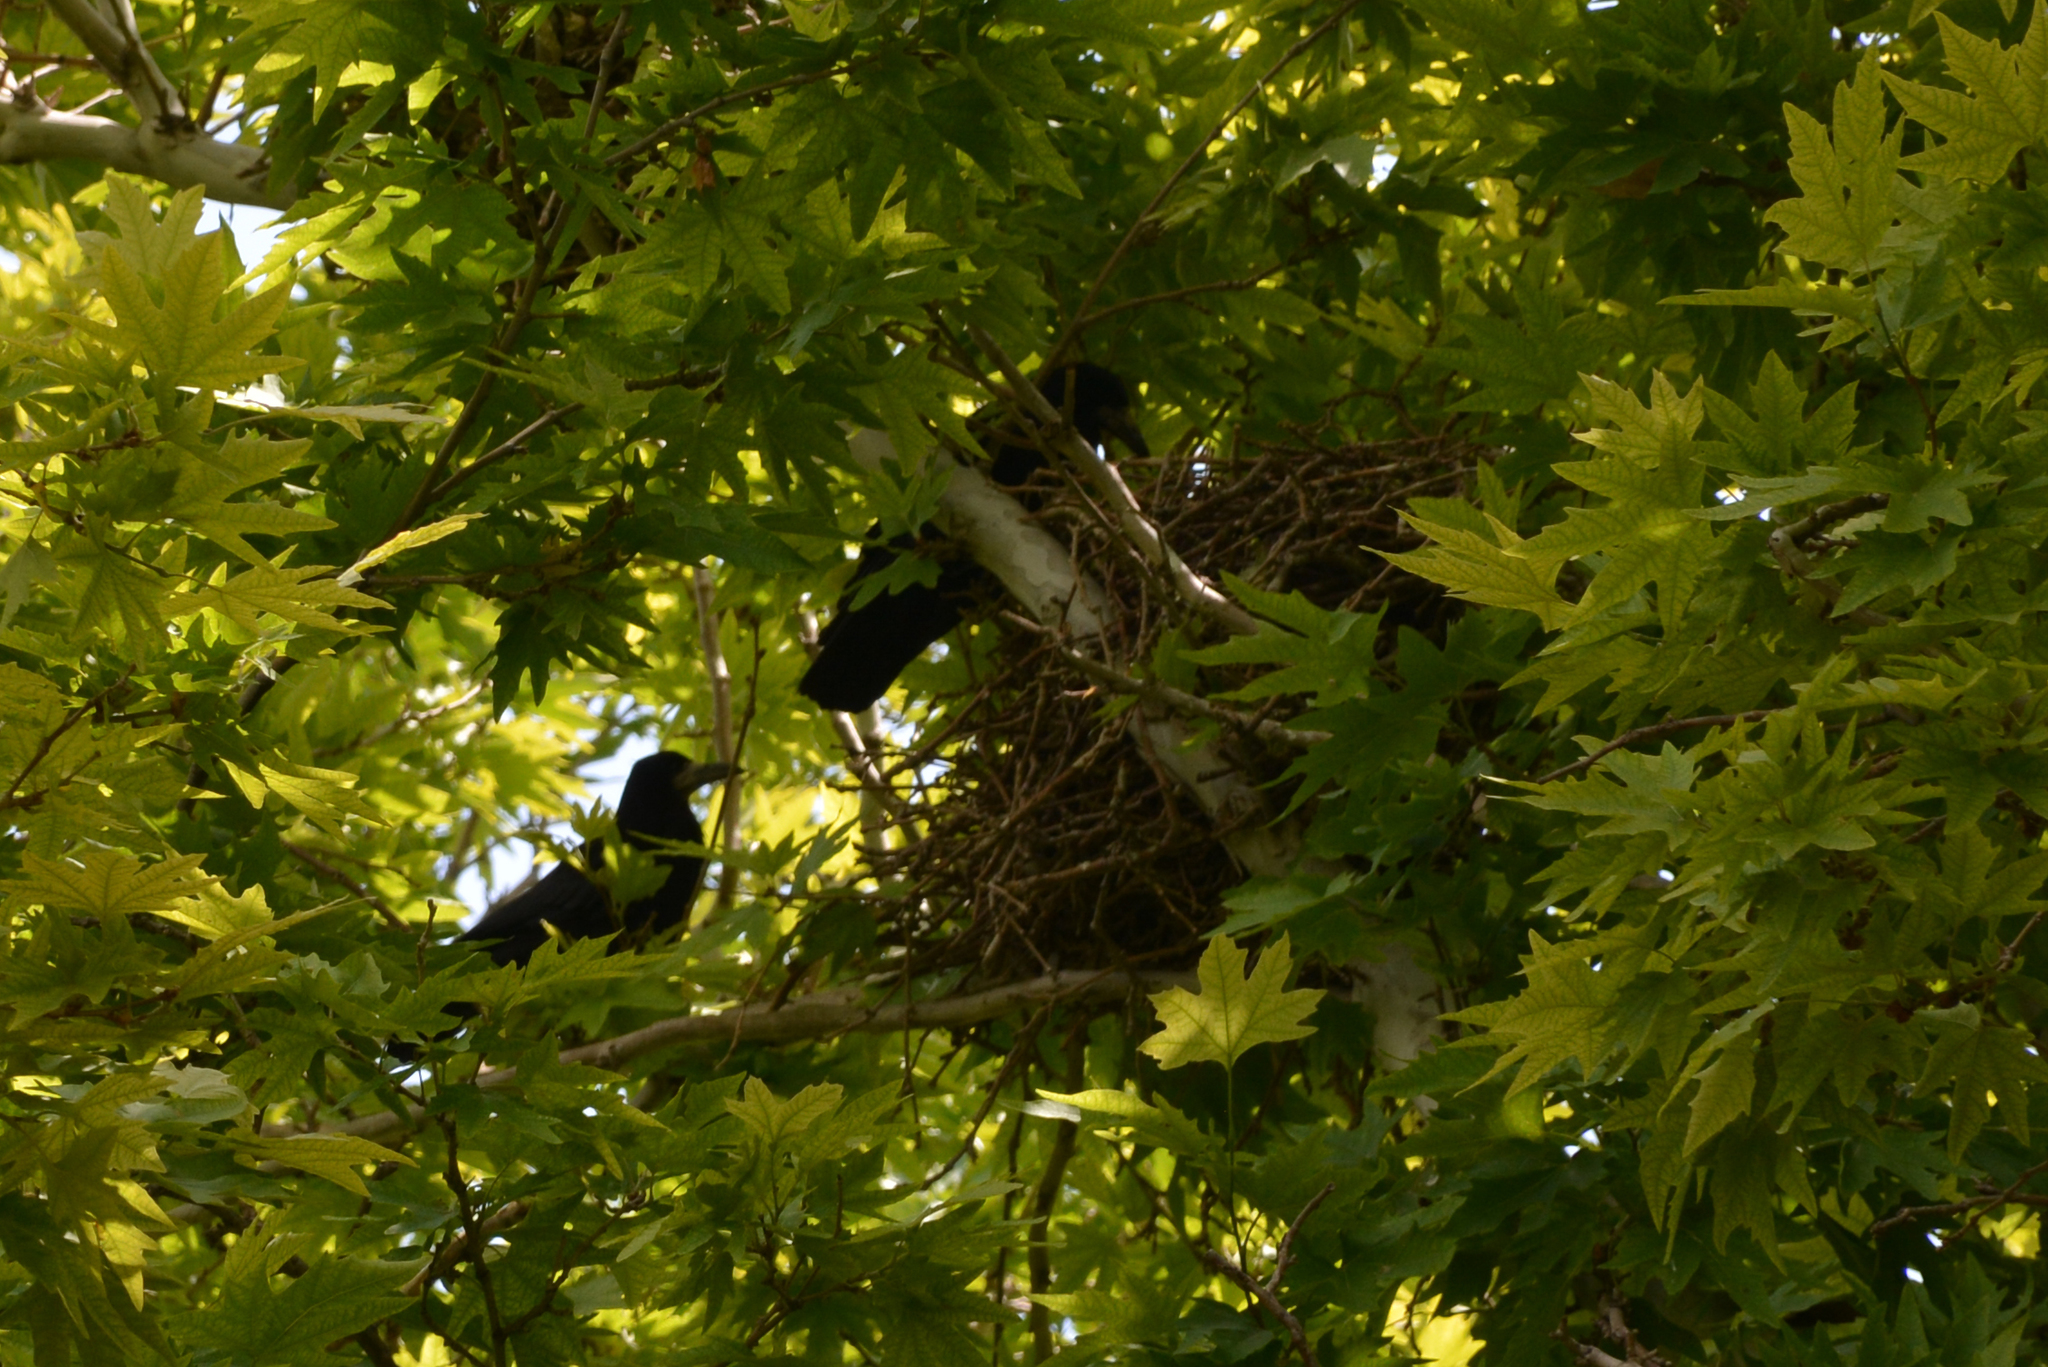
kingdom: Animalia
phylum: Chordata
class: Aves
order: Passeriformes
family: Corvidae
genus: Corvus
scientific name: Corvus frugilegus
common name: Rook
